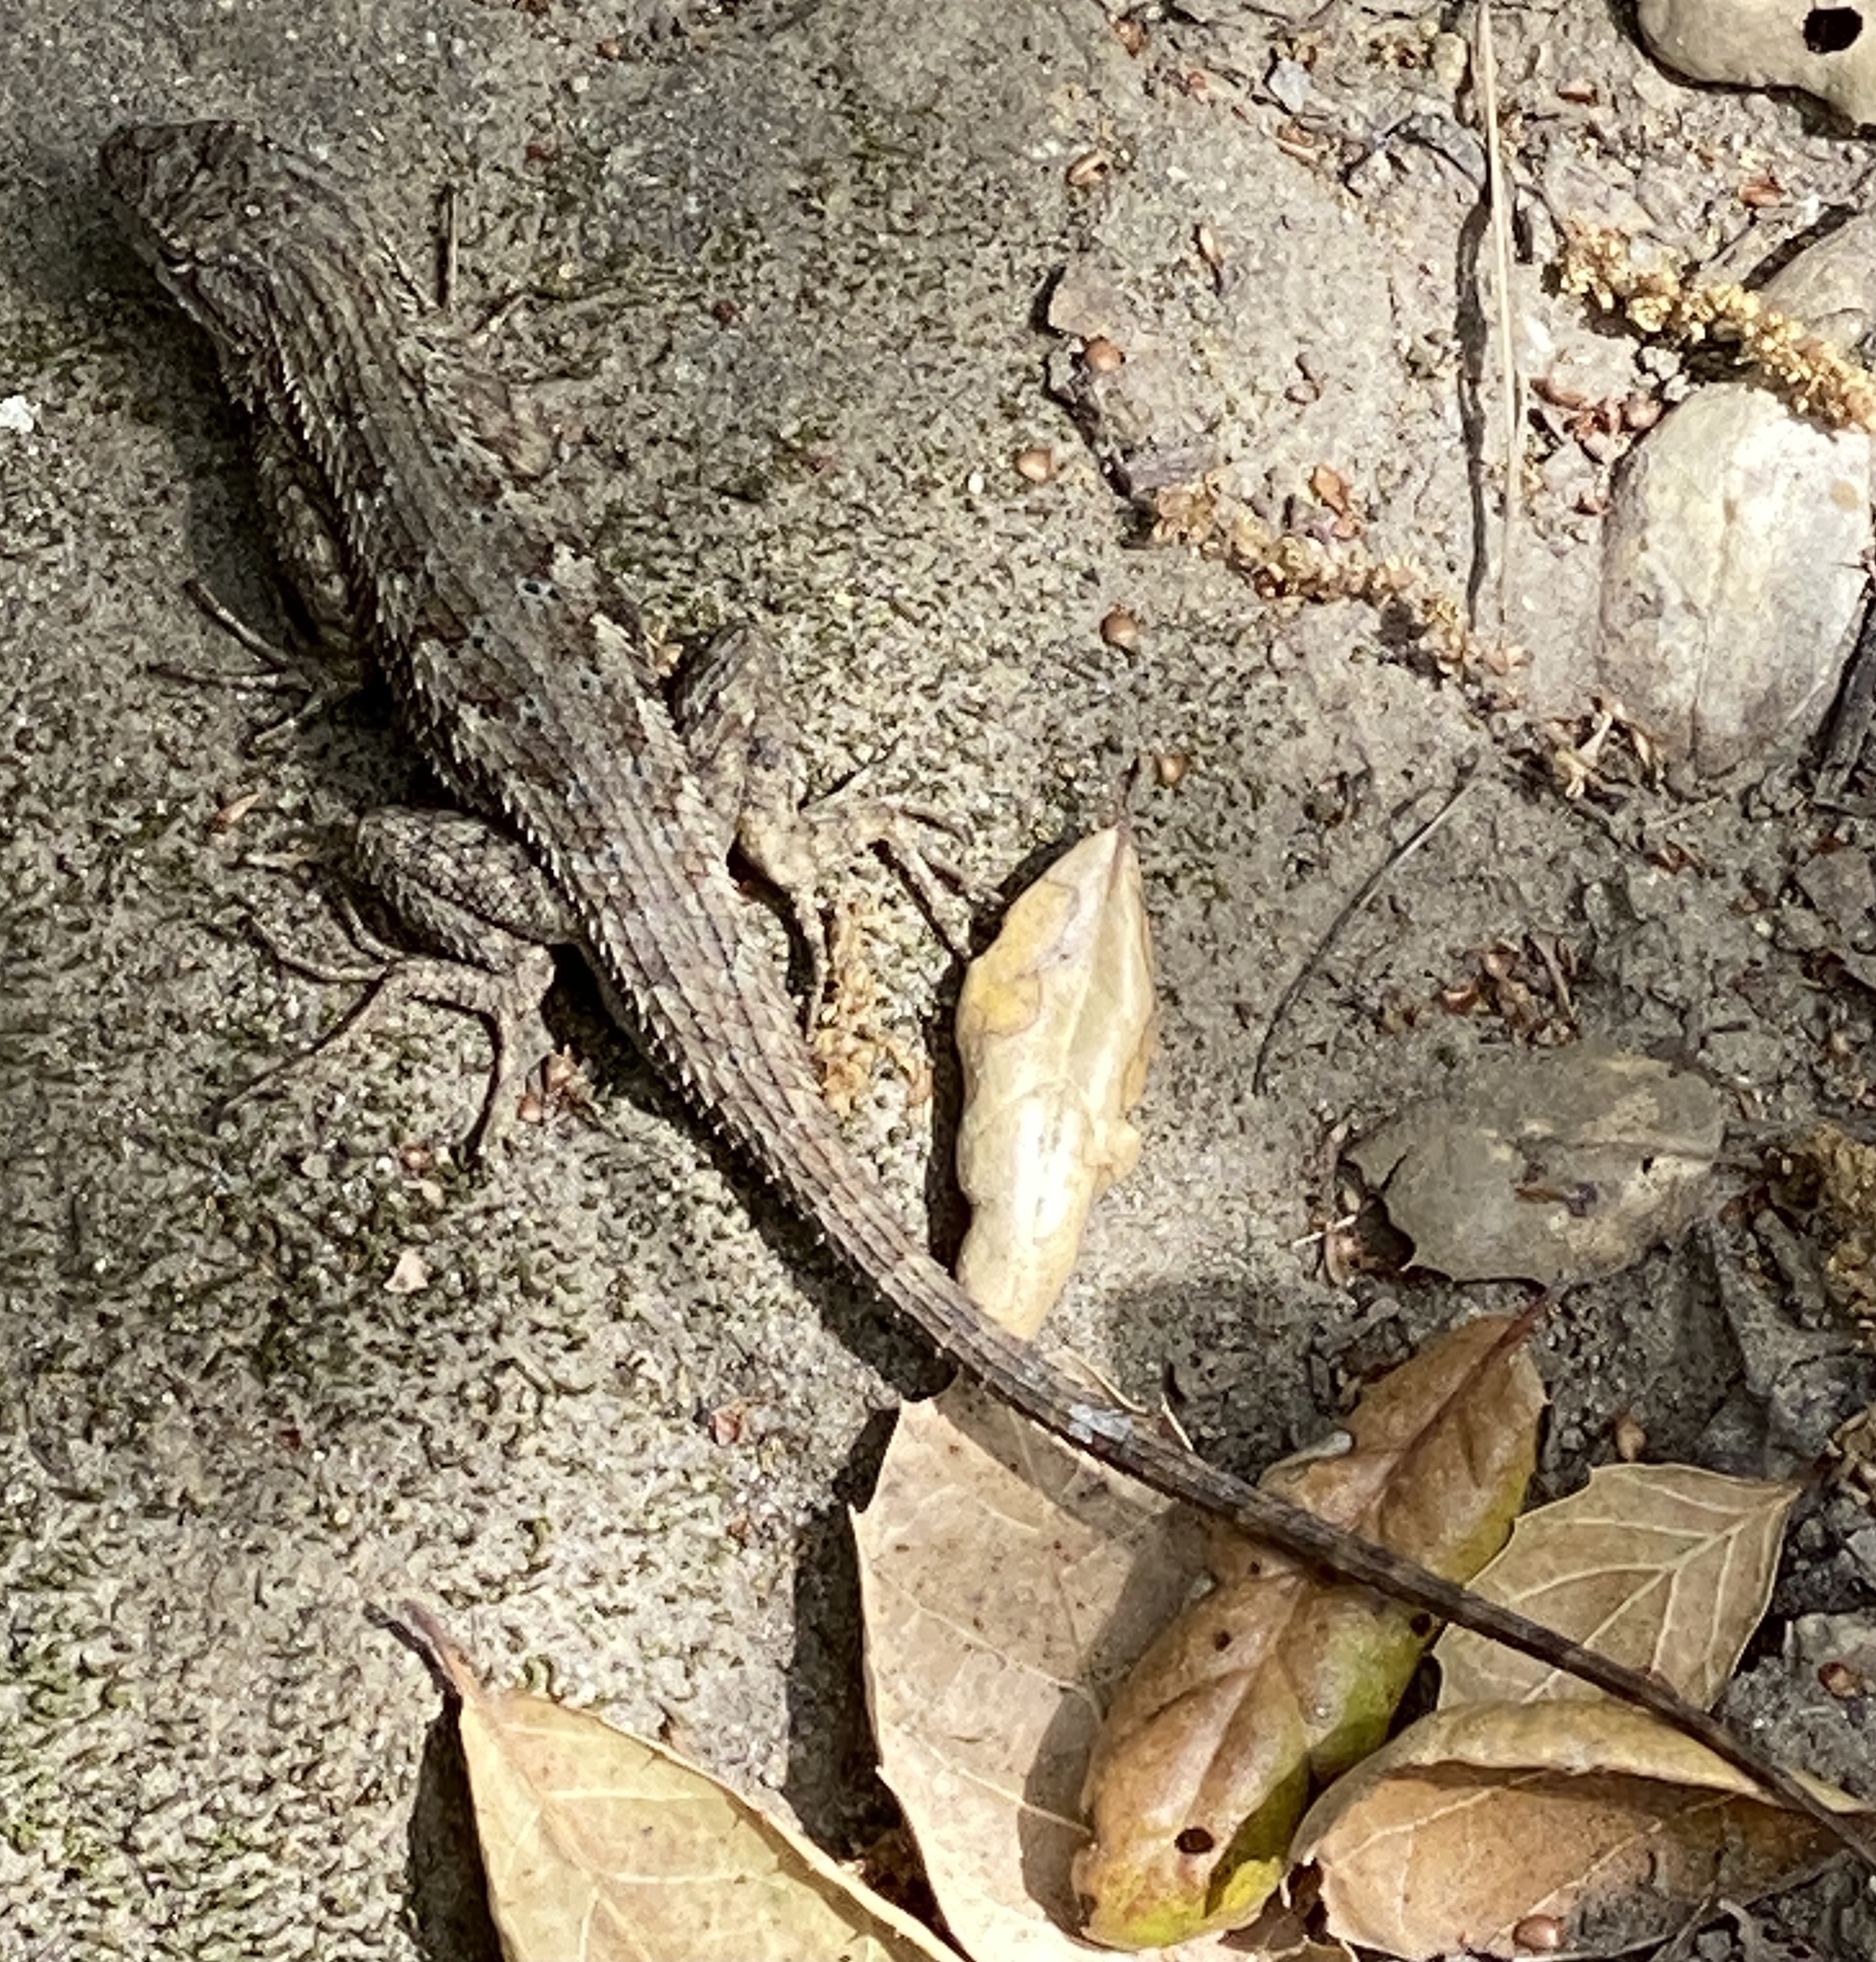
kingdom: Animalia
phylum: Chordata
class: Squamata
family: Phrynosomatidae
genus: Sceloporus
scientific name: Sceloporus occidentalis
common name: Western fence lizard
